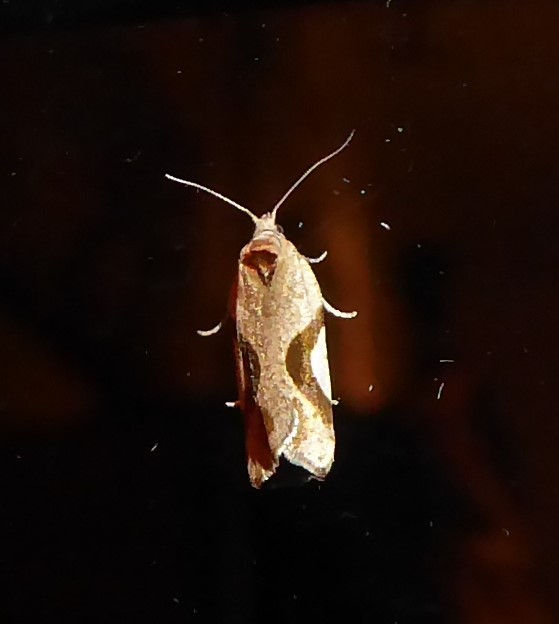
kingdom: Animalia
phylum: Arthropoda
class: Insecta
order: Lepidoptera
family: Tortricidae
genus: Pyrgotis
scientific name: Pyrgotis plagiatana
